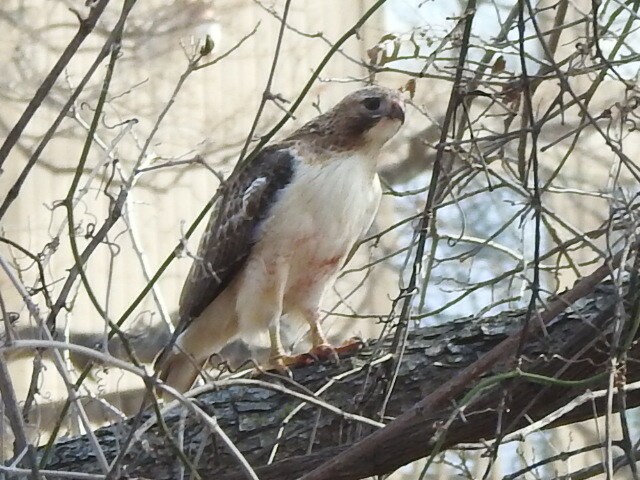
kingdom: Animalia
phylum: Chordata
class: Aves
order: Accipitriformes
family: Accipitridae
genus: Buteo
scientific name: Buteo jamaicensis
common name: Red-tailed hawk
